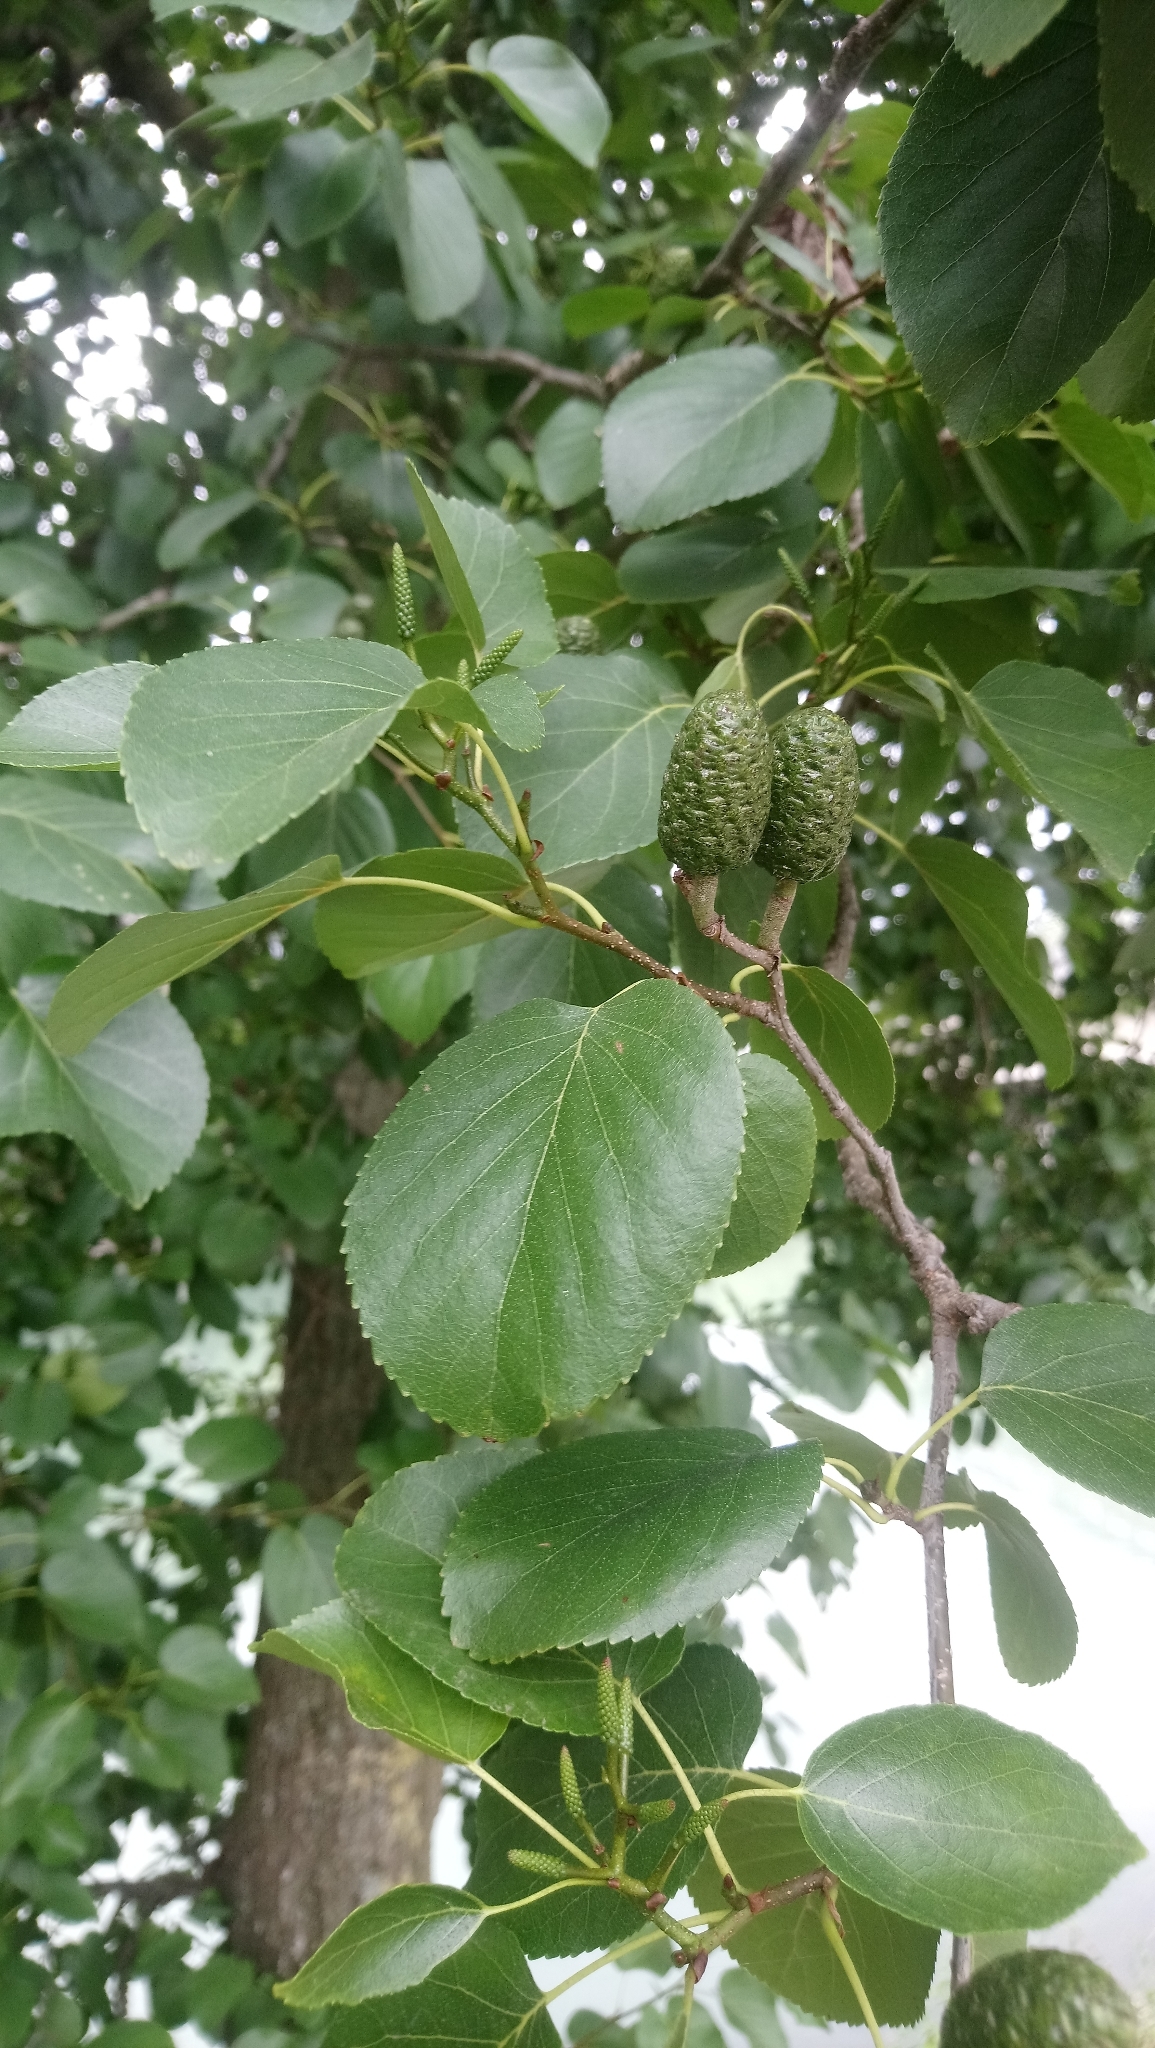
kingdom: Plantae
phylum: Tracheophyta
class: Magnoliopsida
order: Fagales
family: Betulaceae
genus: Alnus
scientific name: Alnus cordata
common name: Italian alder
